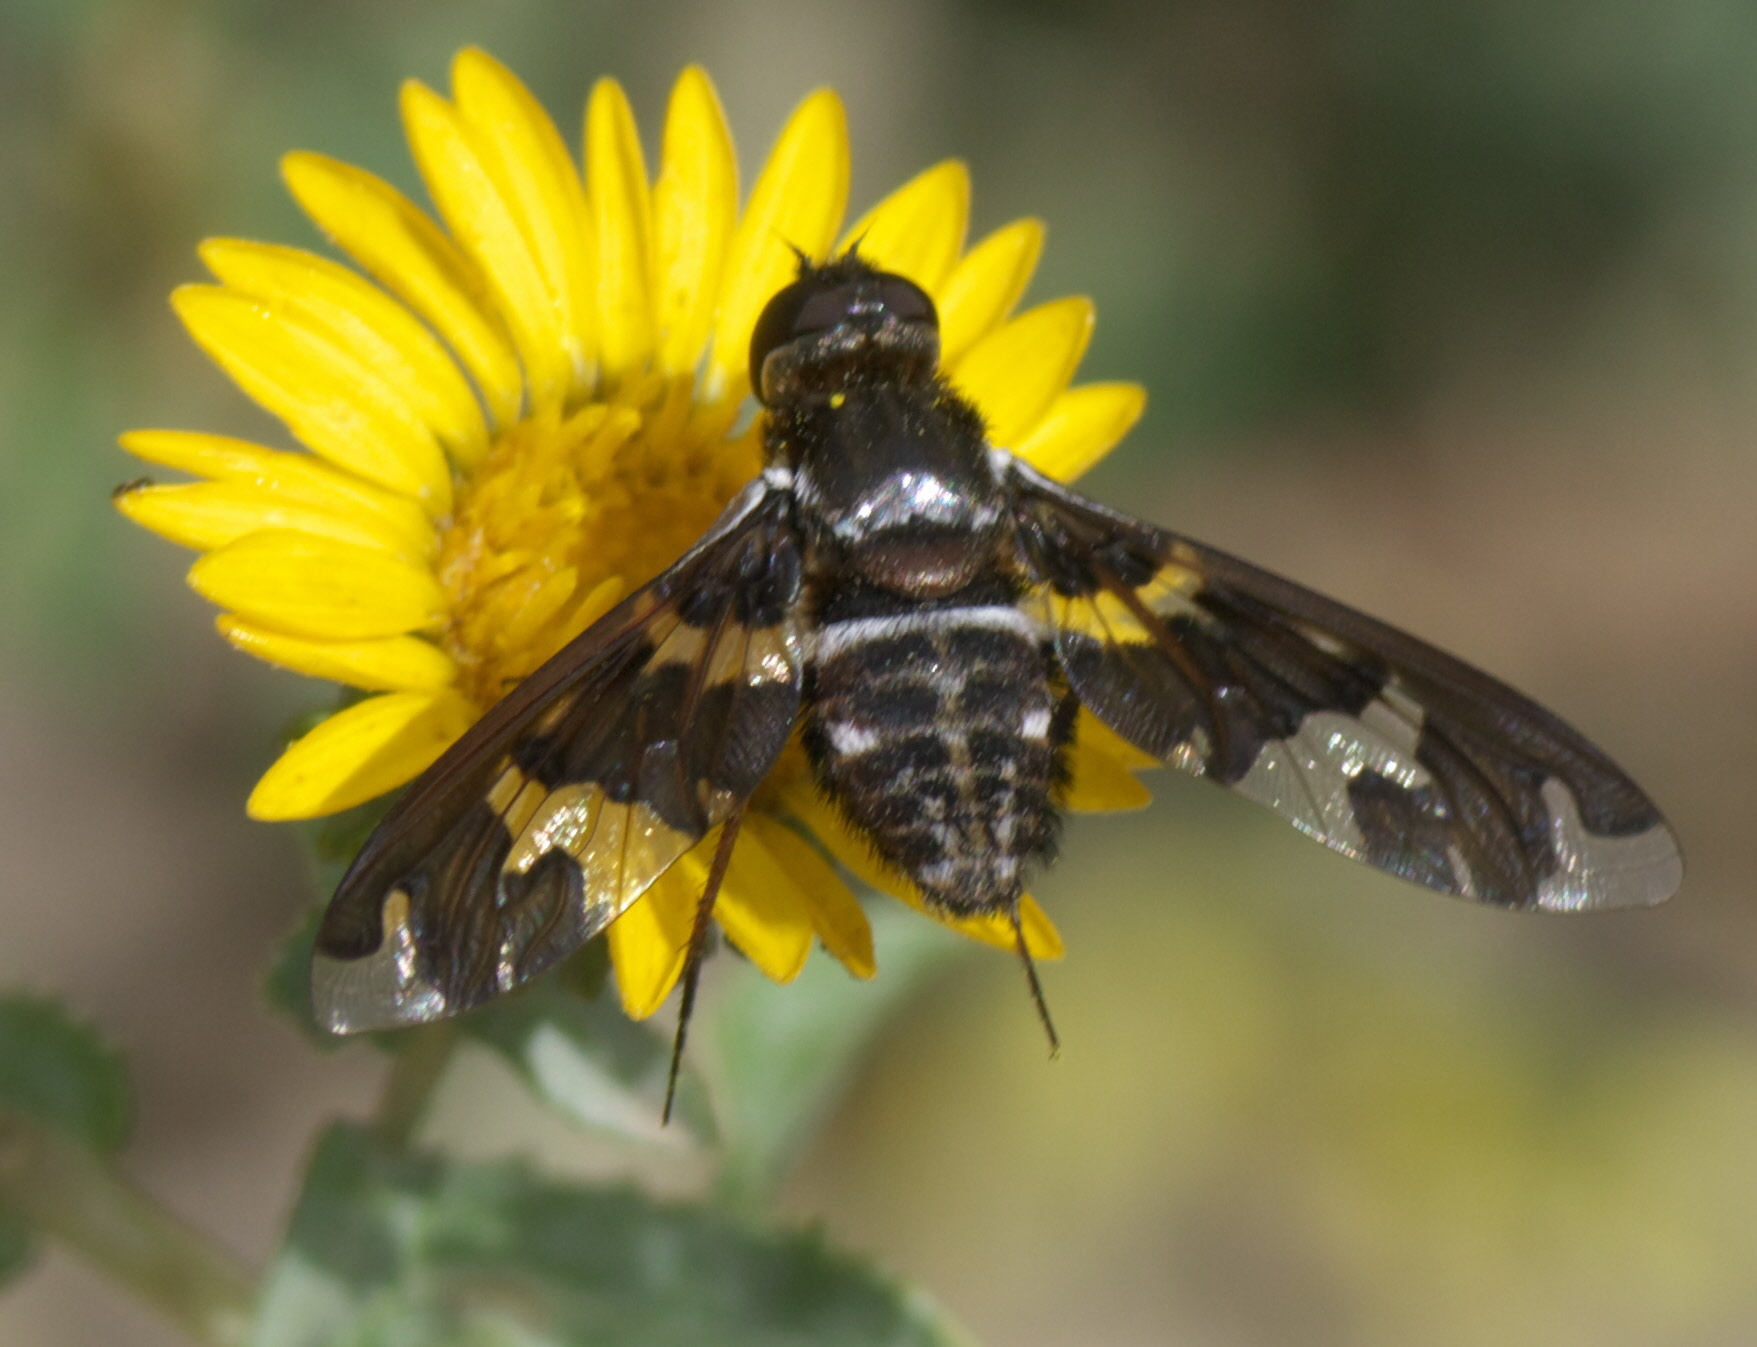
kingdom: Animalia
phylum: Arthropoda
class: Insecta
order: Diptera
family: Bombyliidae
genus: Exoprosopa
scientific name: Exoprosopa dorcadion
